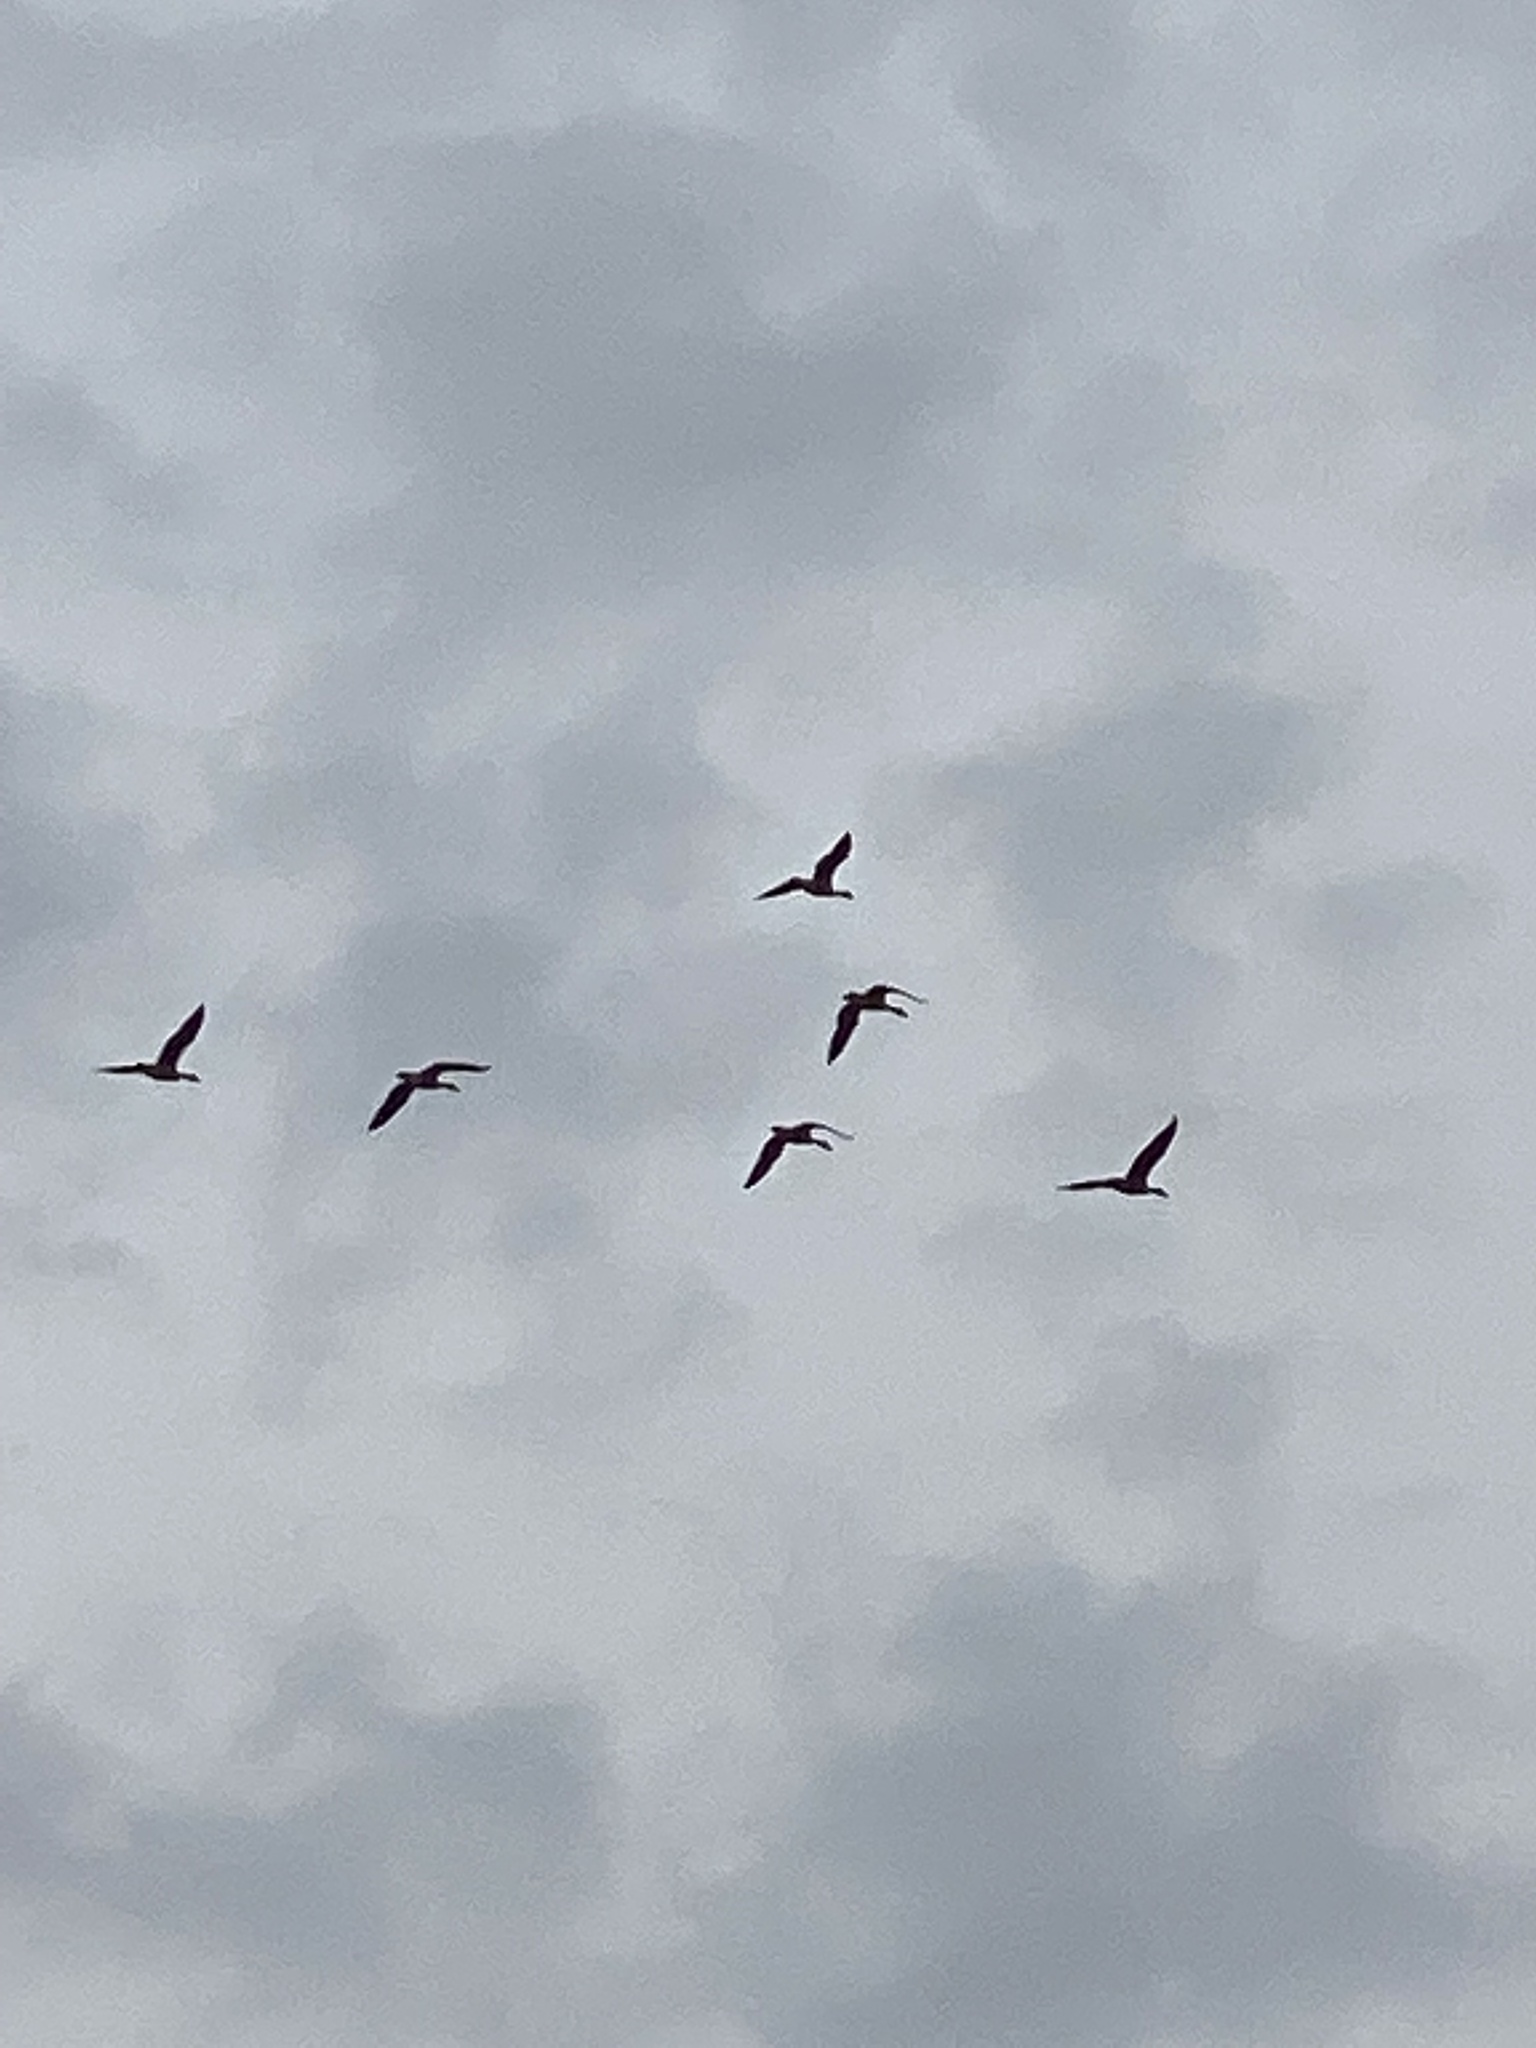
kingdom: Animalia
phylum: Chordata
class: Aves
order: Anseriformes
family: Anatidae
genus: Branta
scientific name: Branta canadensis
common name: Canada goose
